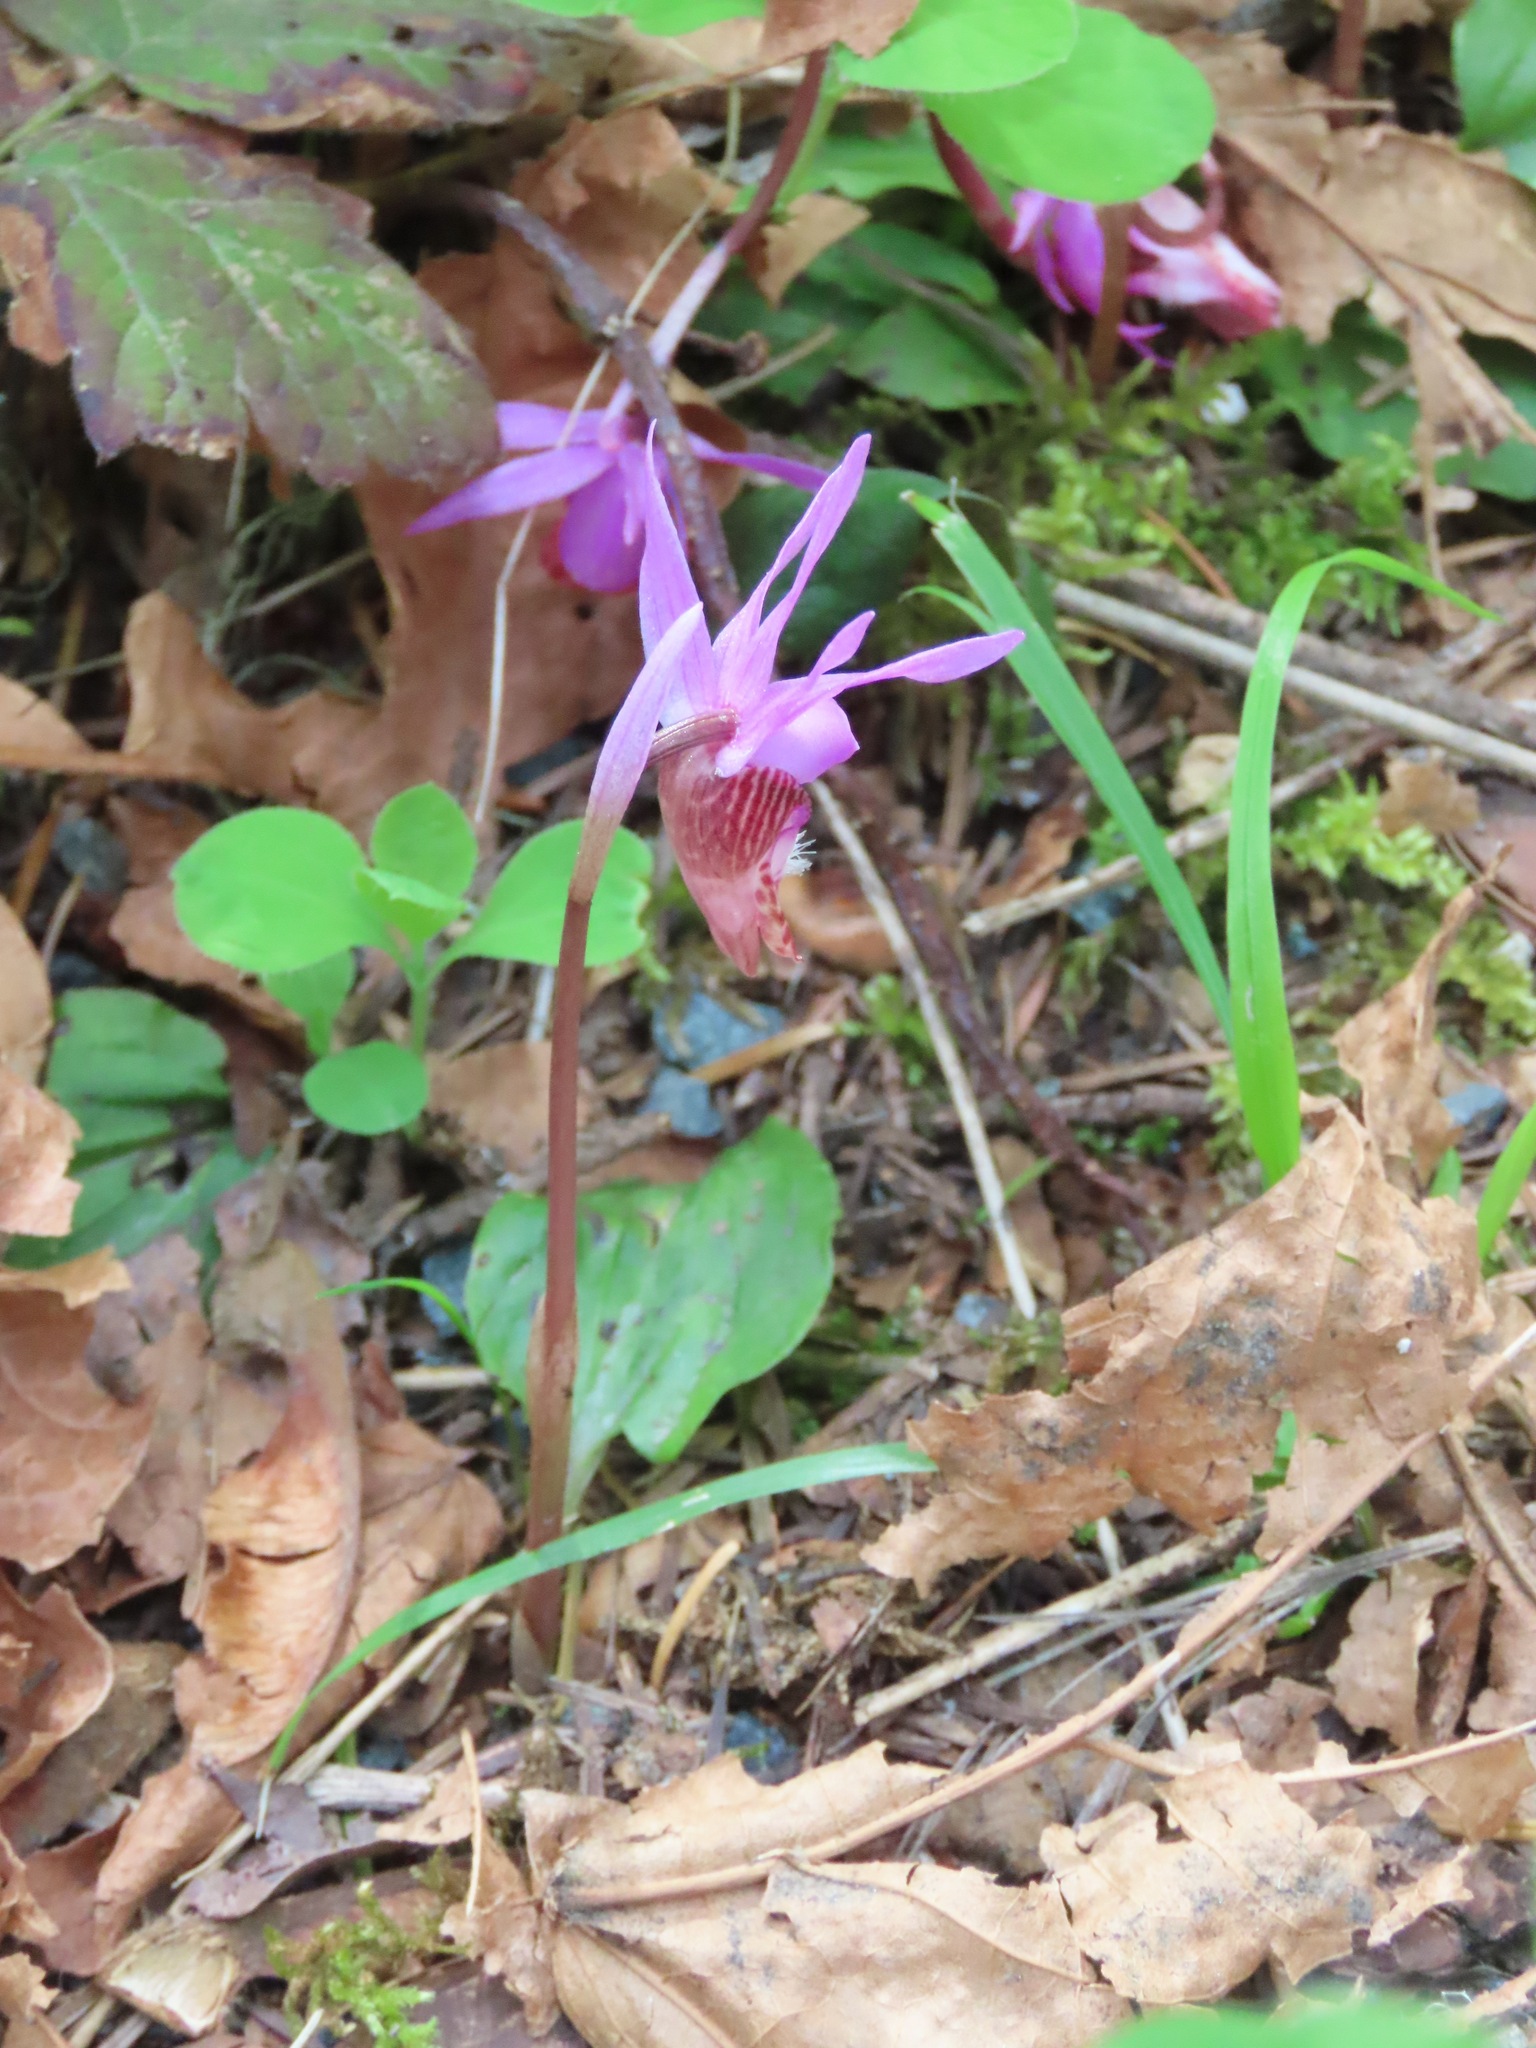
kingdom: Plantae
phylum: Tracheophyta
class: Liliopsida
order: Asparagales
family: Orchidaceae
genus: Calypso
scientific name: Calypso bulbosa
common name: Calypso
